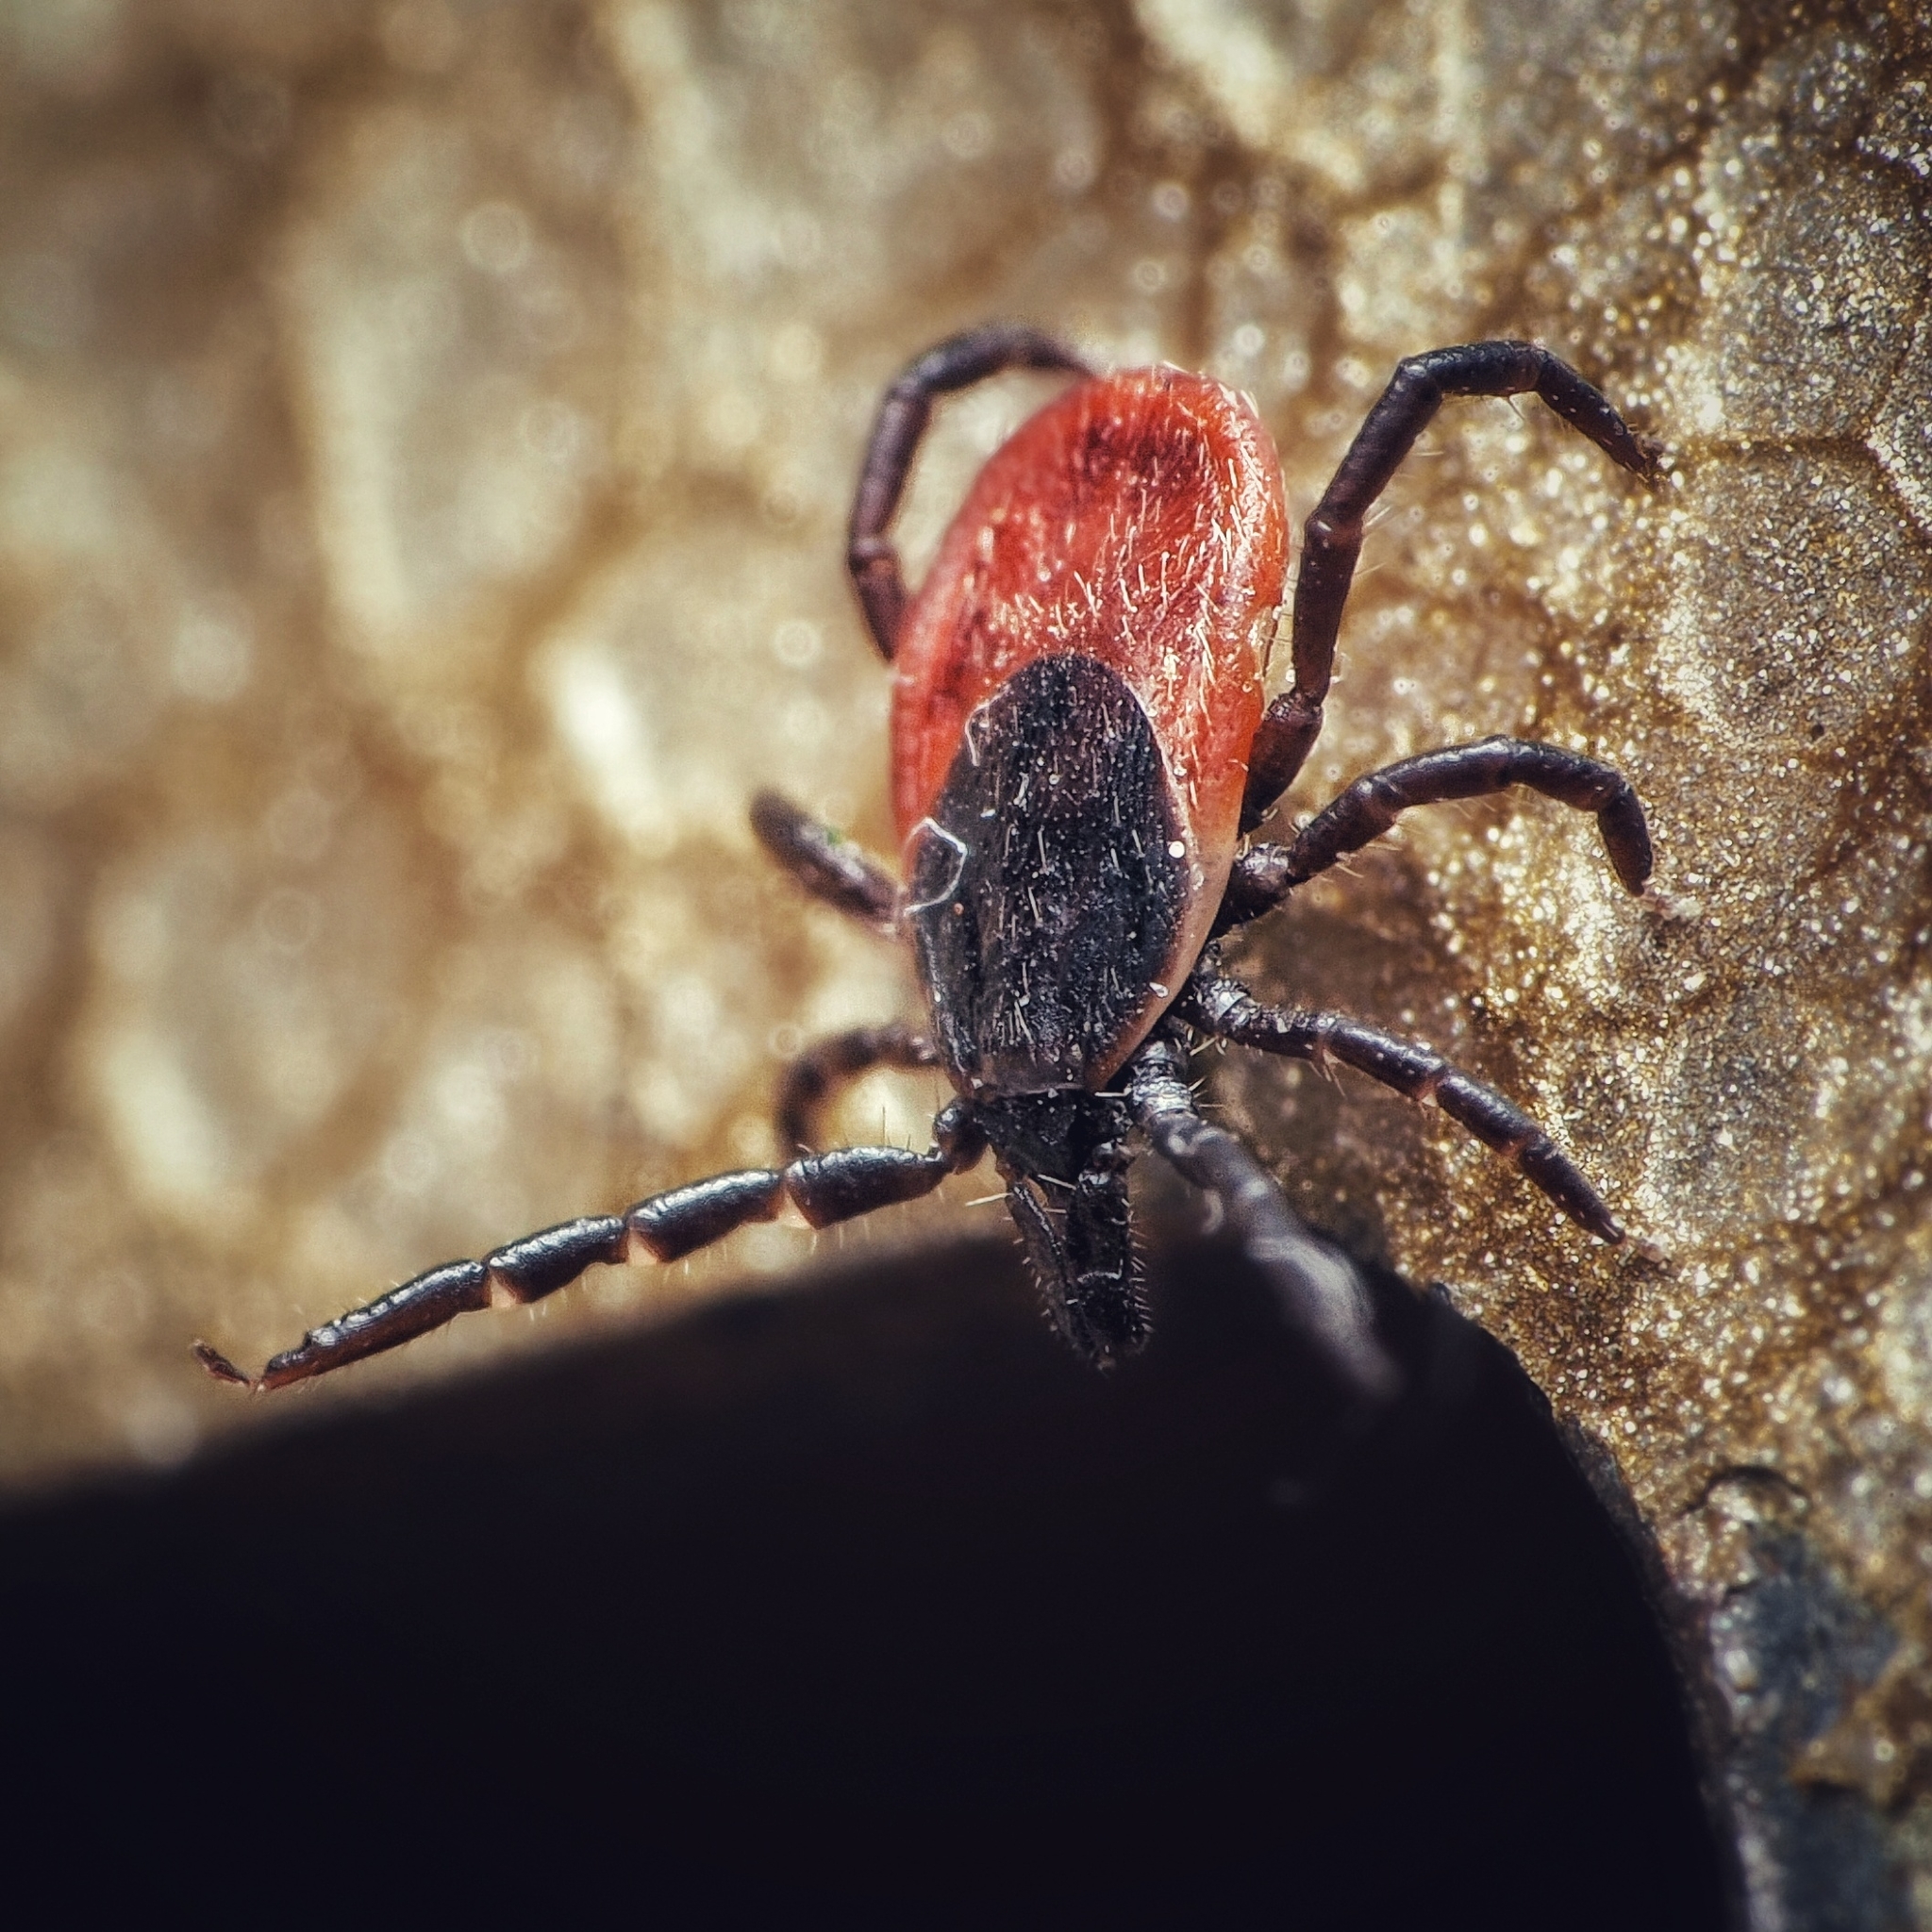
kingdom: Animalia
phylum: Arthropoda
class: Arachnida
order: Ixodida
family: Ixodidae
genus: Ixodes
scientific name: Ixodes ricinus
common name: Castor bean tick
